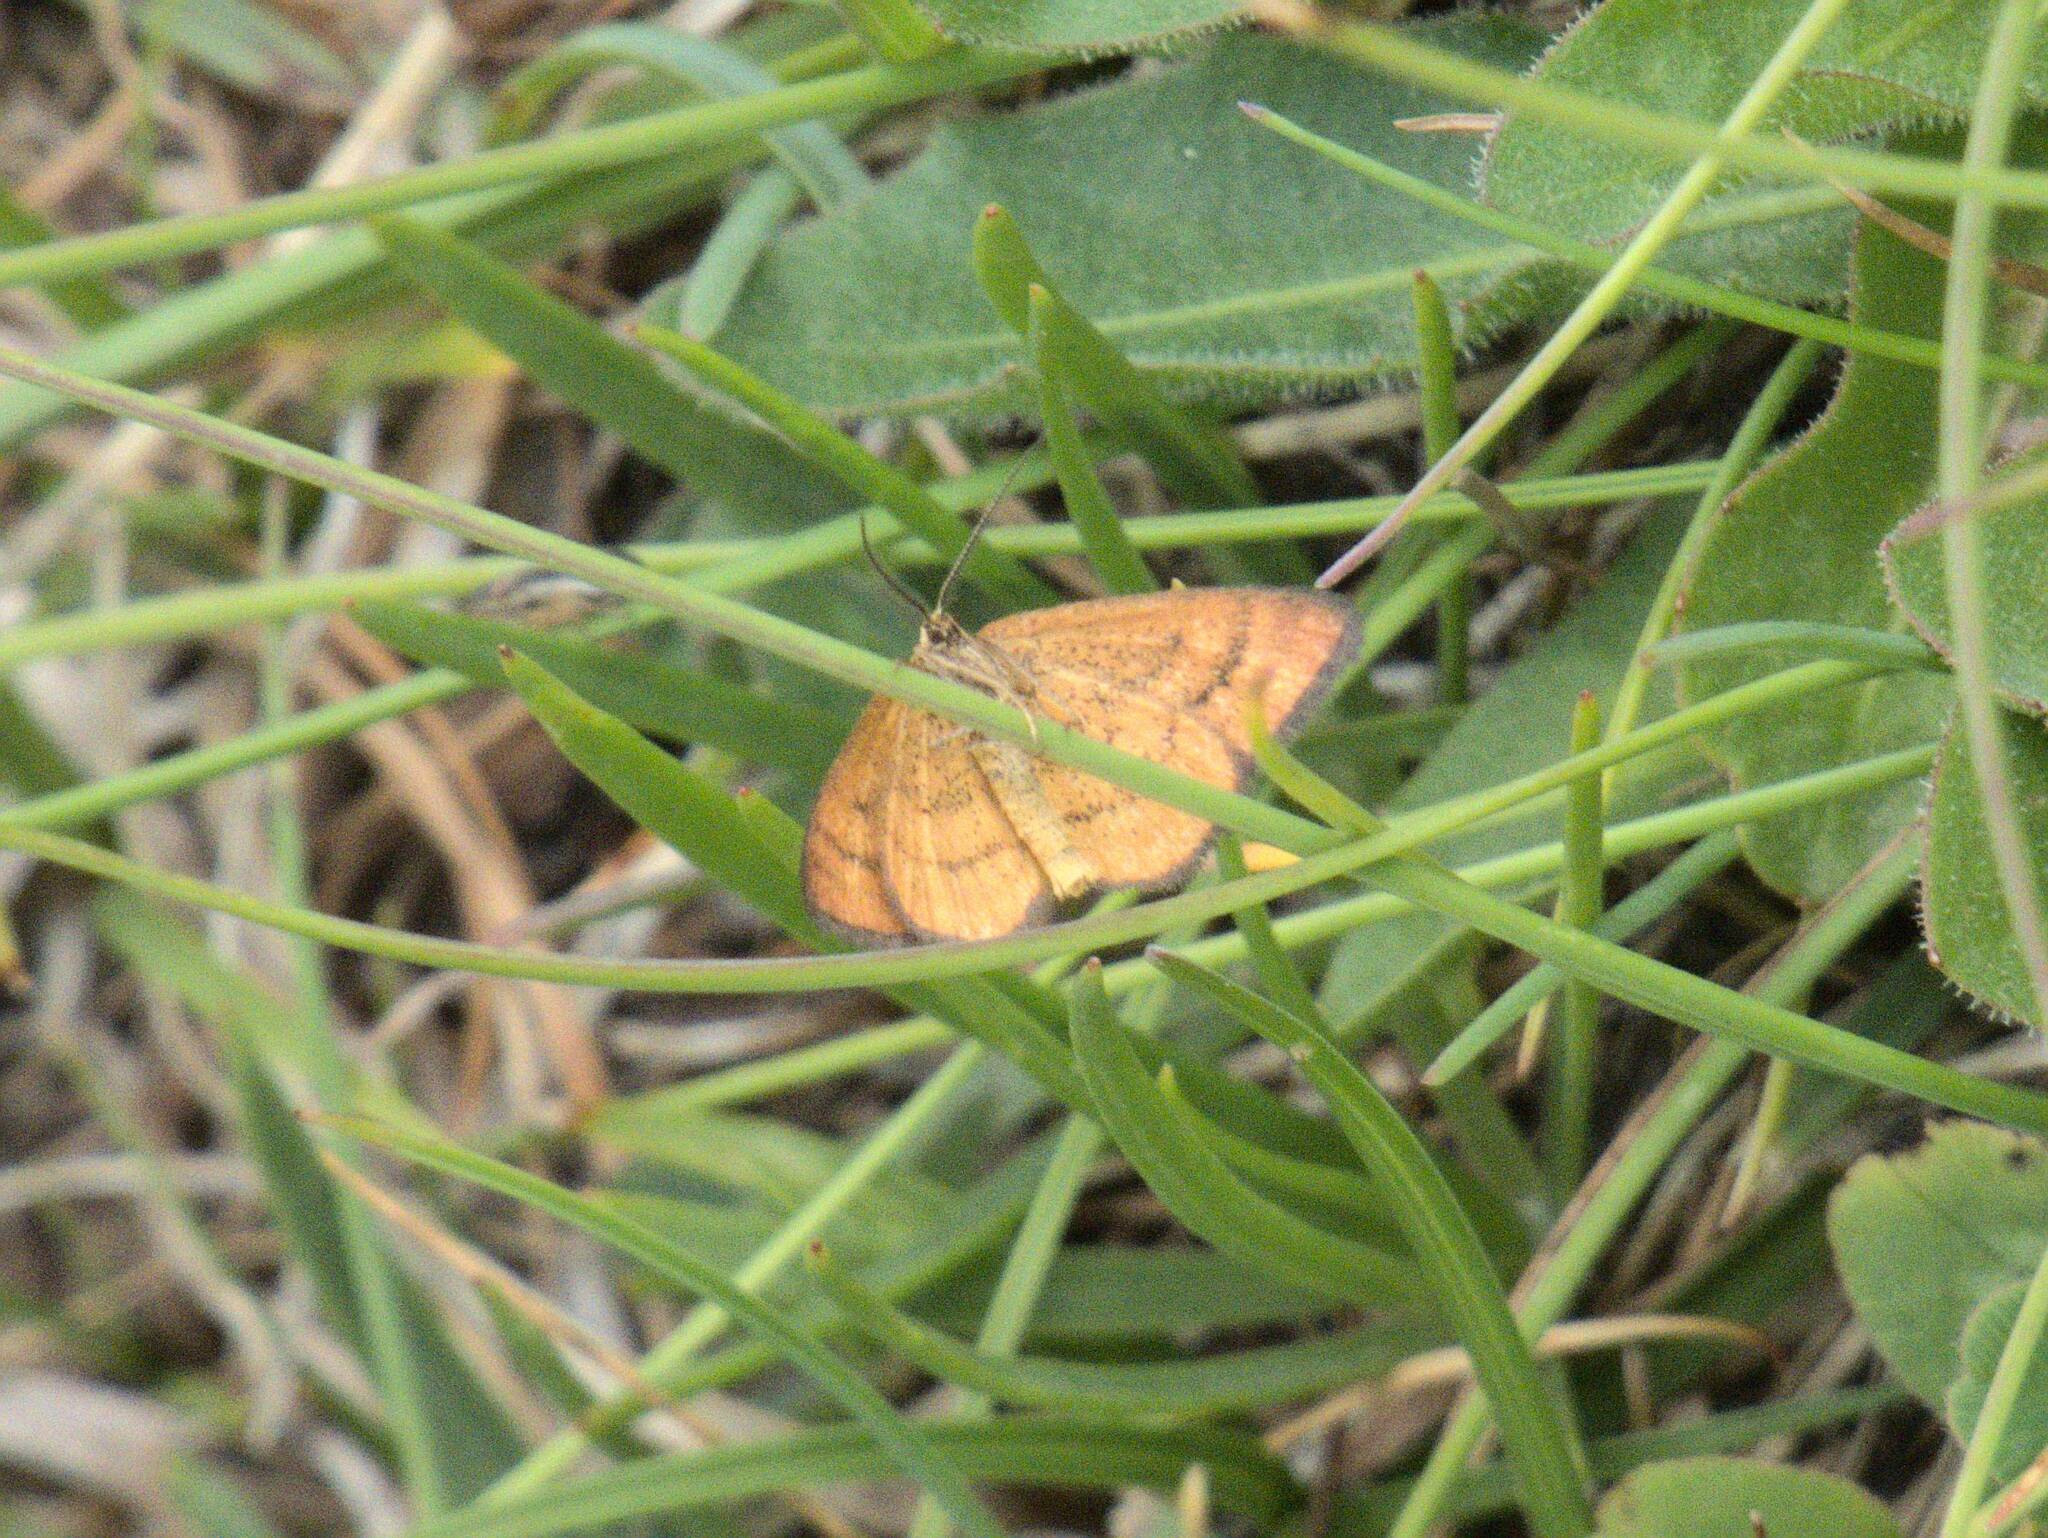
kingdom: Animalia
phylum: Arthropoda
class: Insecta
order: Lepidoptera
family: Geometridae
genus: Idaea
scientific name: Idaea flaveolaria
